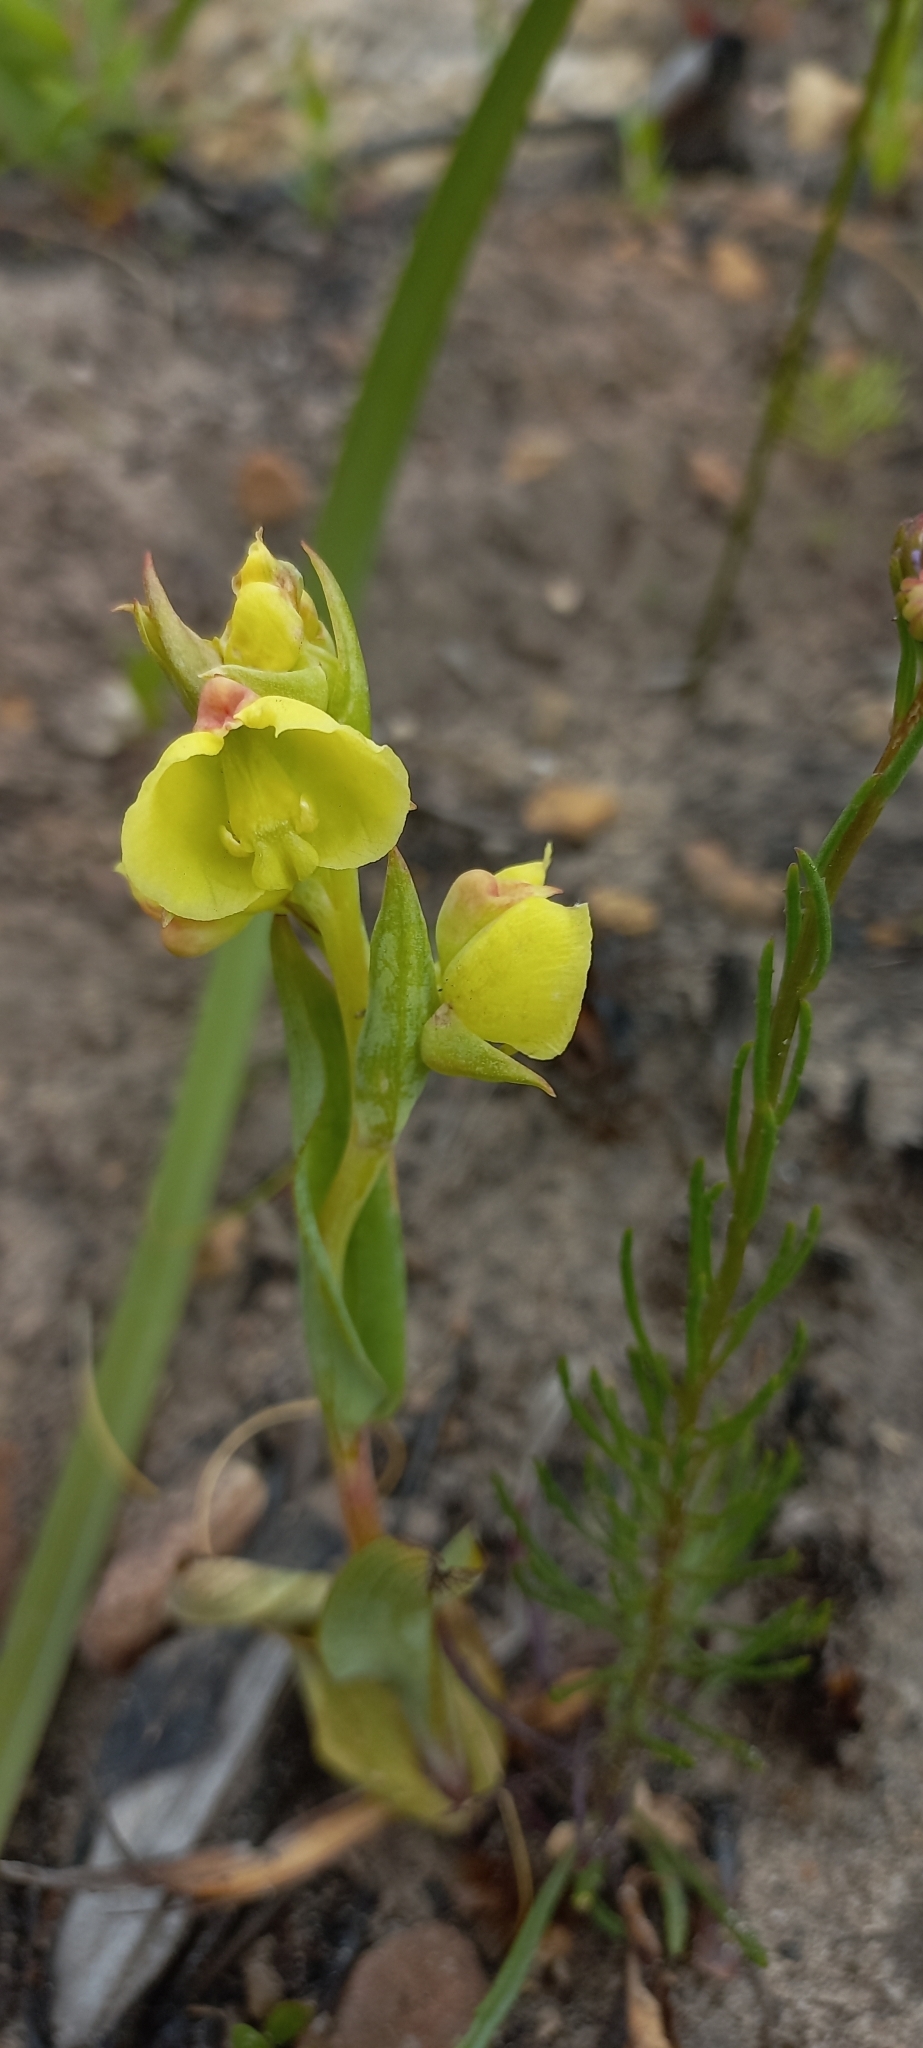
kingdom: Plantae
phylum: Tracheophyta
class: Liliopsida
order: Asparagales
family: Orchidaceae
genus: Pterygodium
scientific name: Pterygodium catholicum
